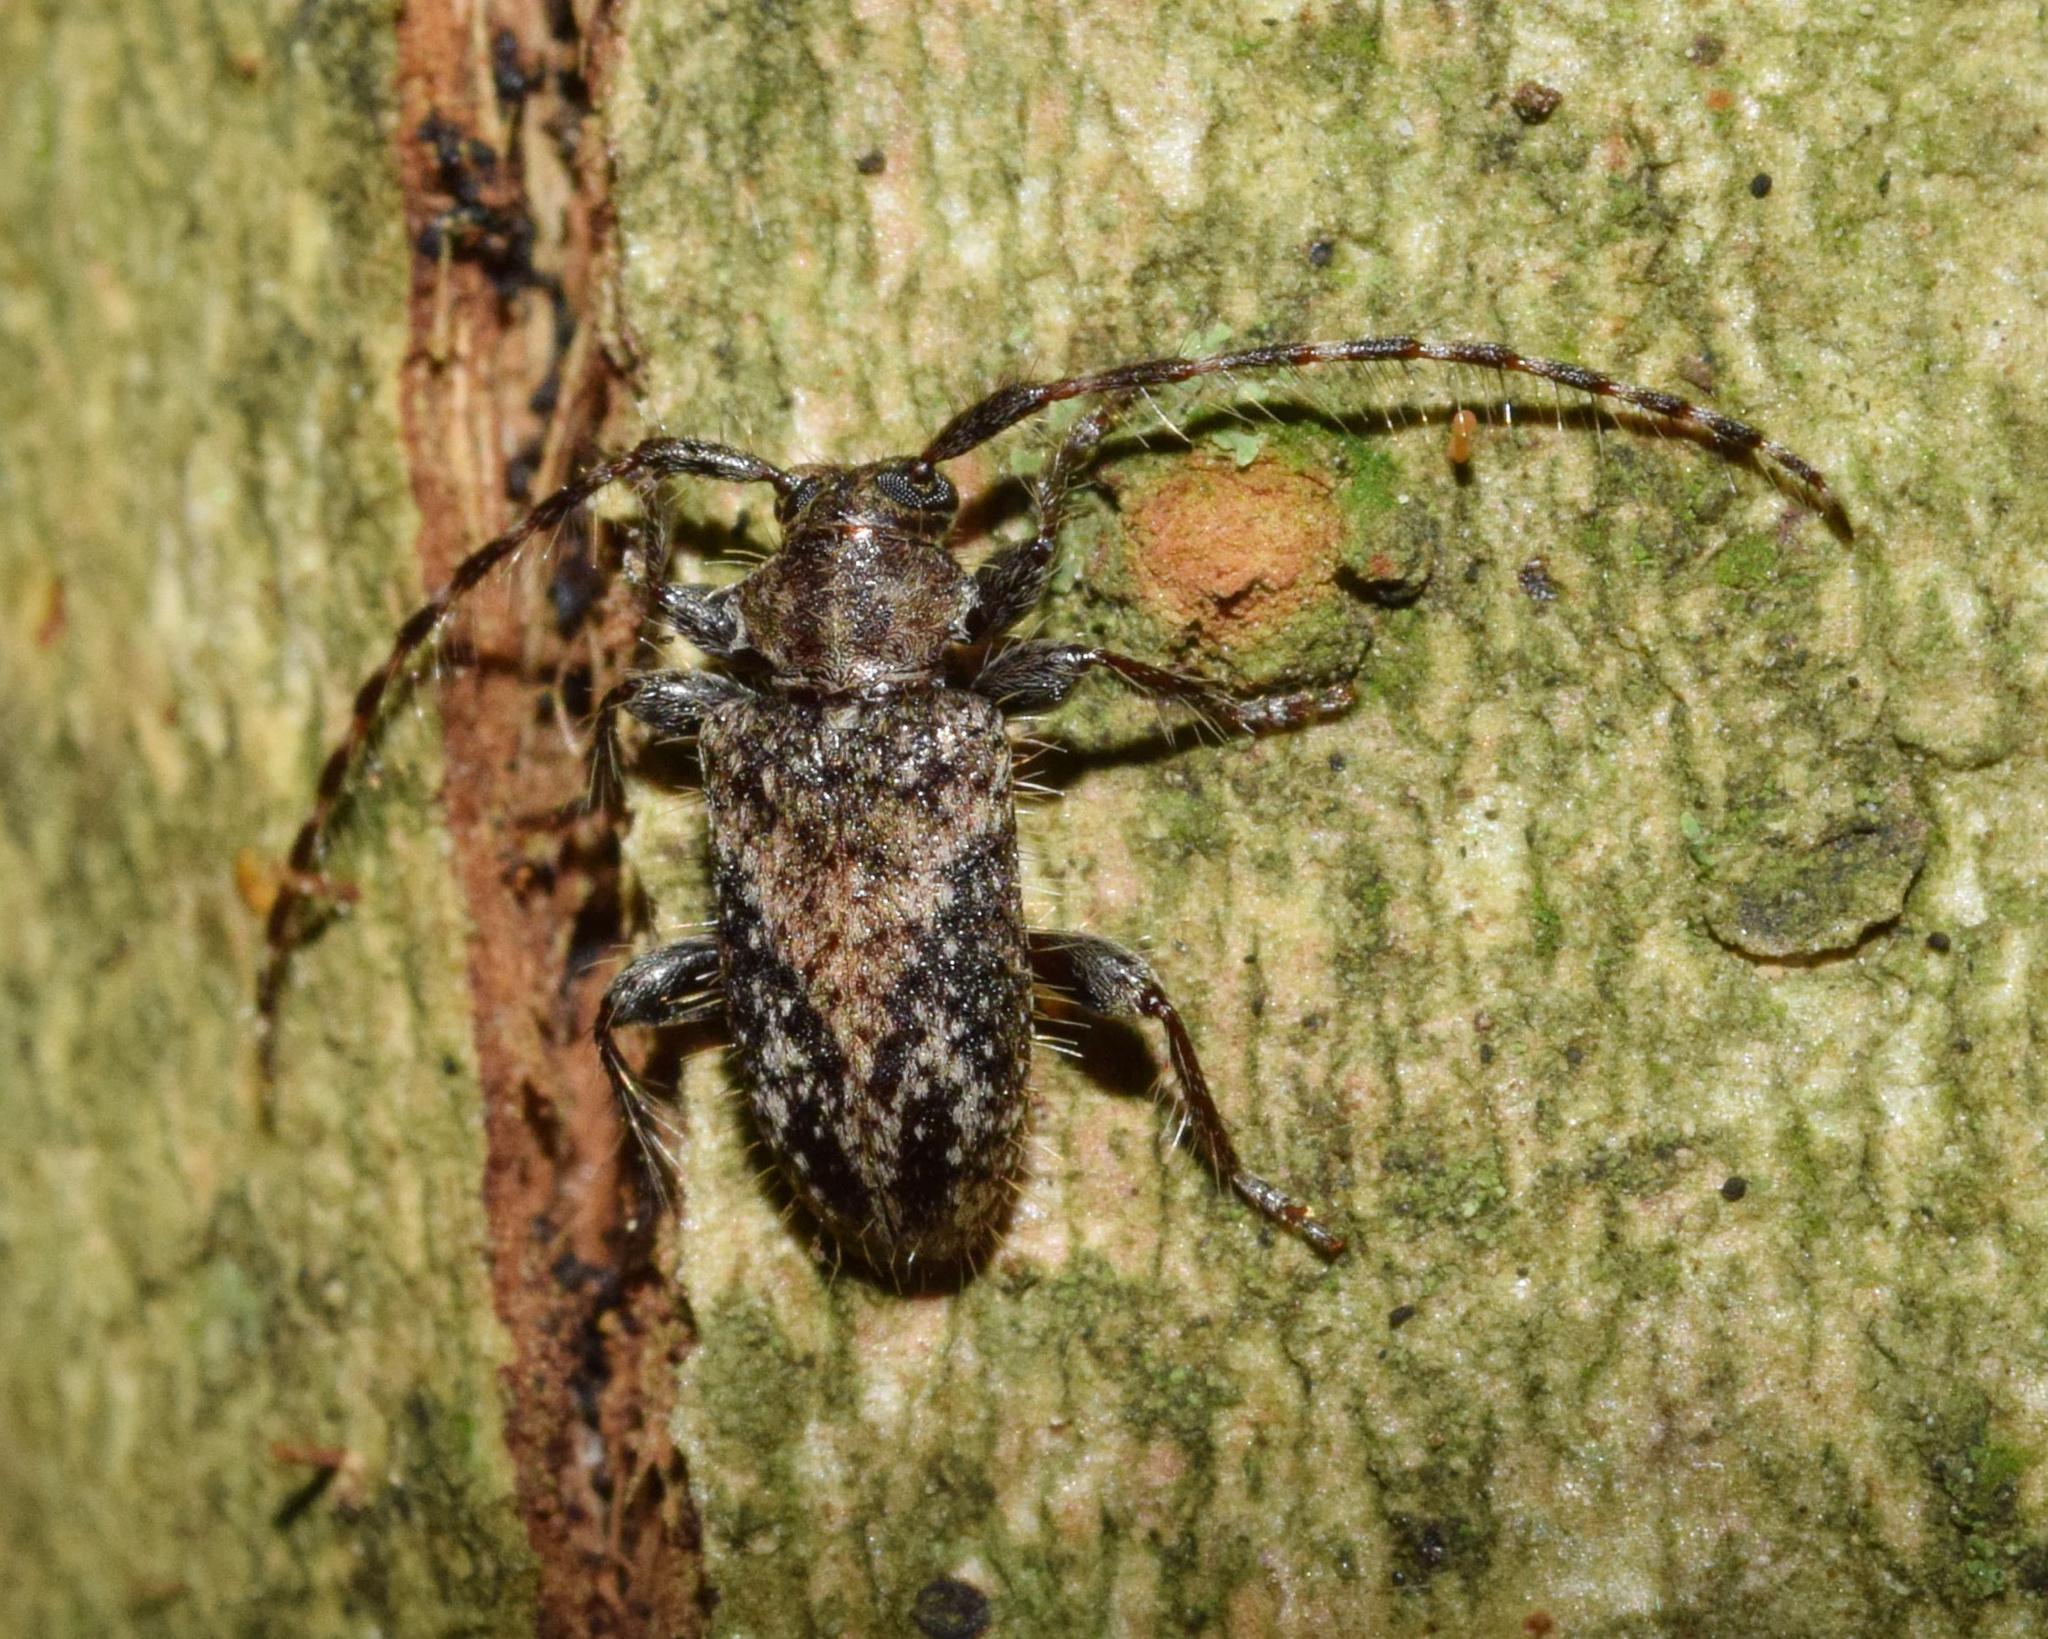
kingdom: Animalia
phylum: Arthropoda
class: Insecta
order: Coleoptera
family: Cerambycidae
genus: Sumelis
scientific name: Sumelis occidentalis
